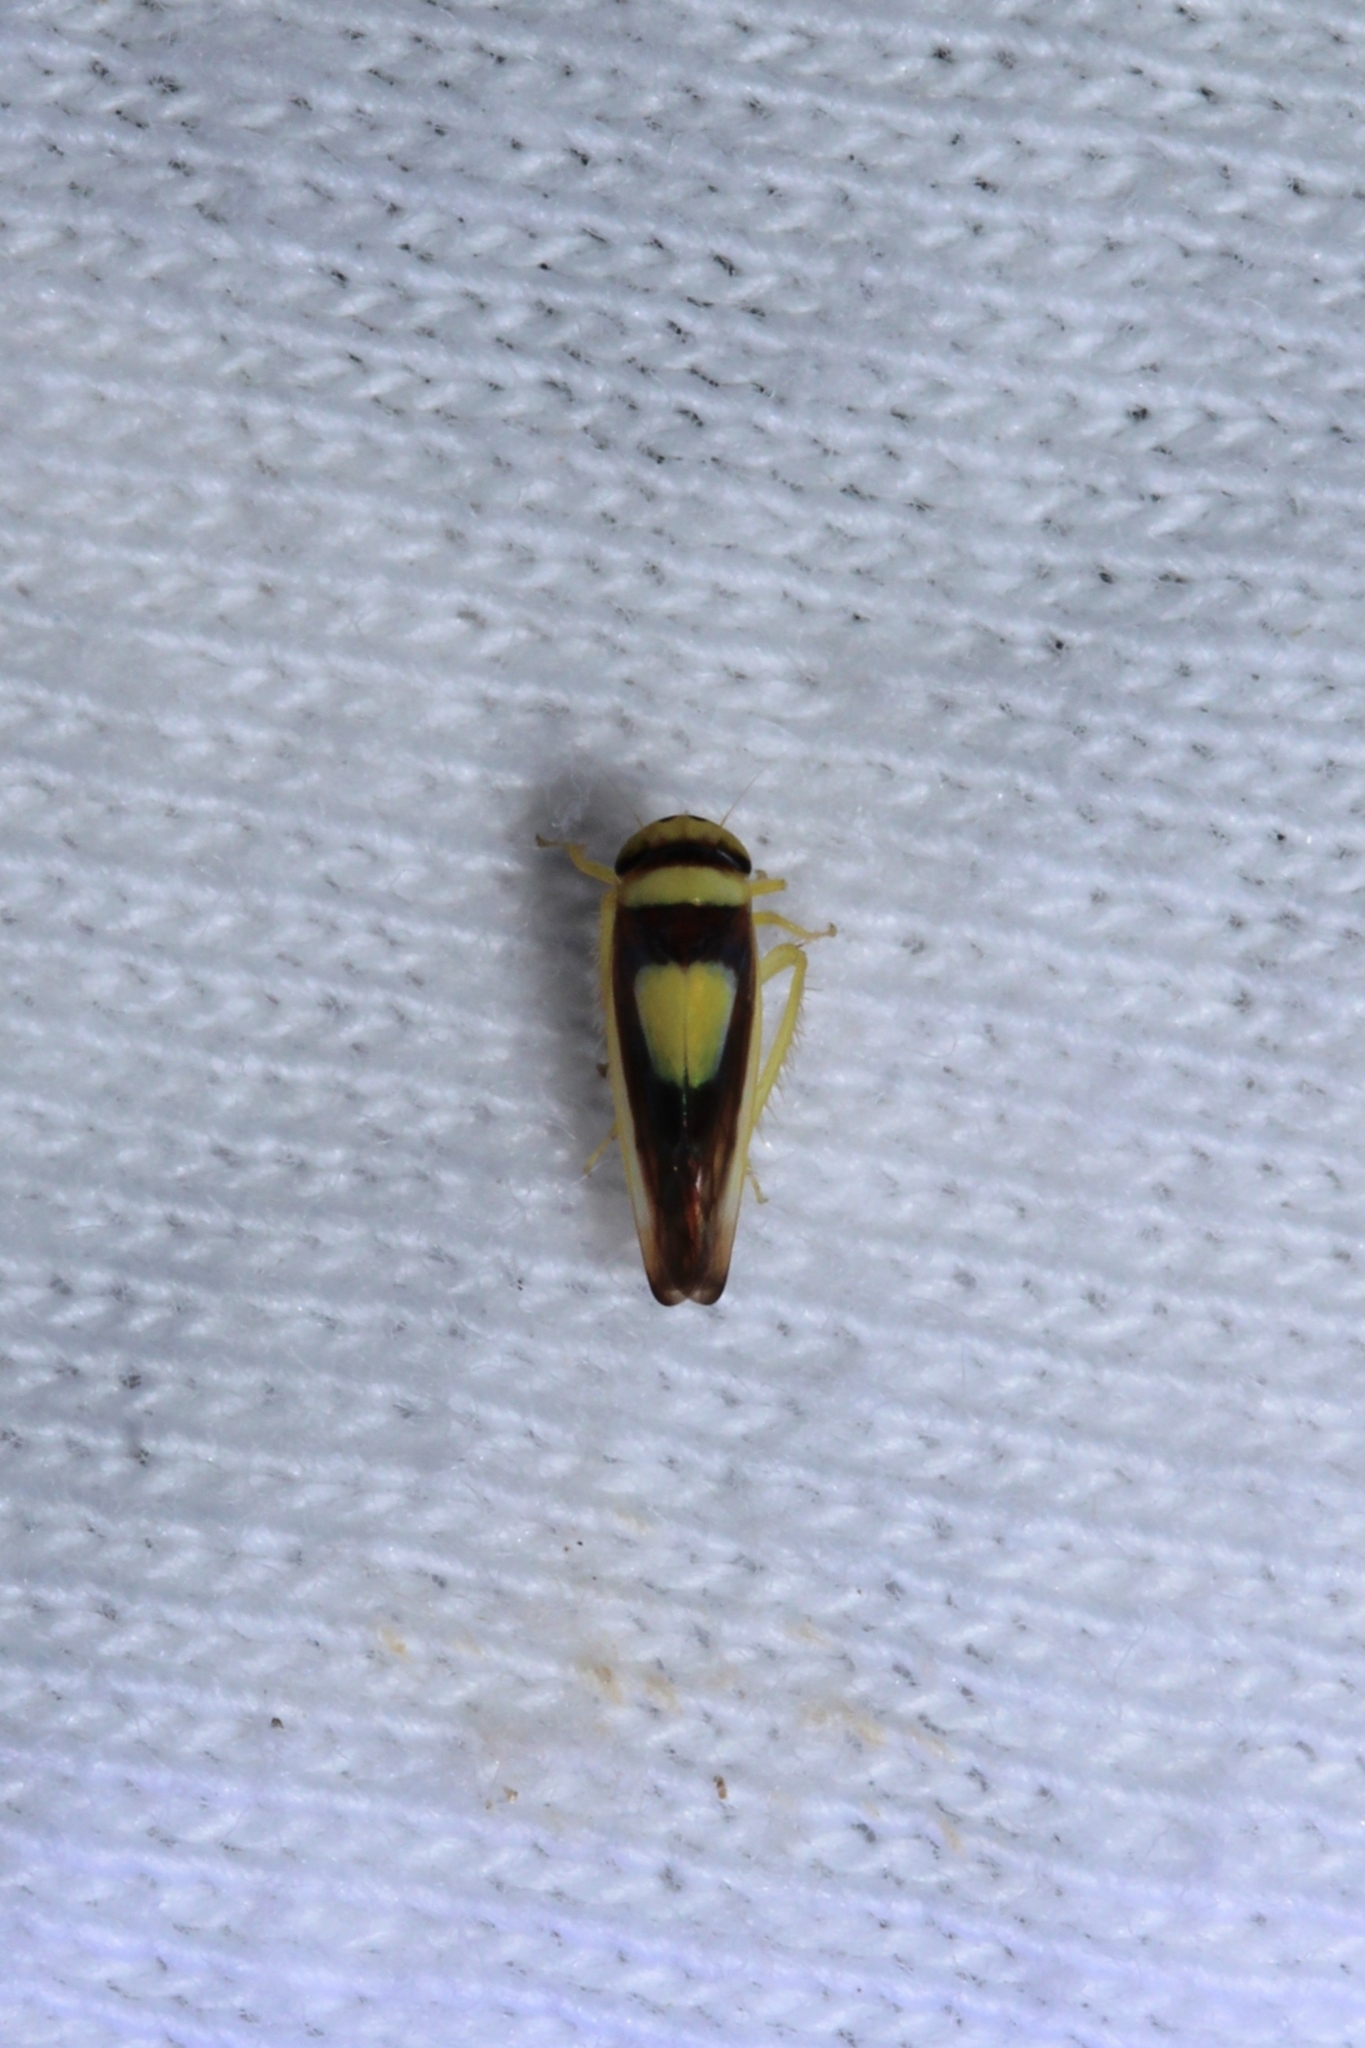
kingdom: Animalia
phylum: Arthropoda
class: Insecta
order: Hemiptera
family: Cicadellidae
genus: Colladonus
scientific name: Colladonus clitellarius
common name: The saddleback leafhopper
